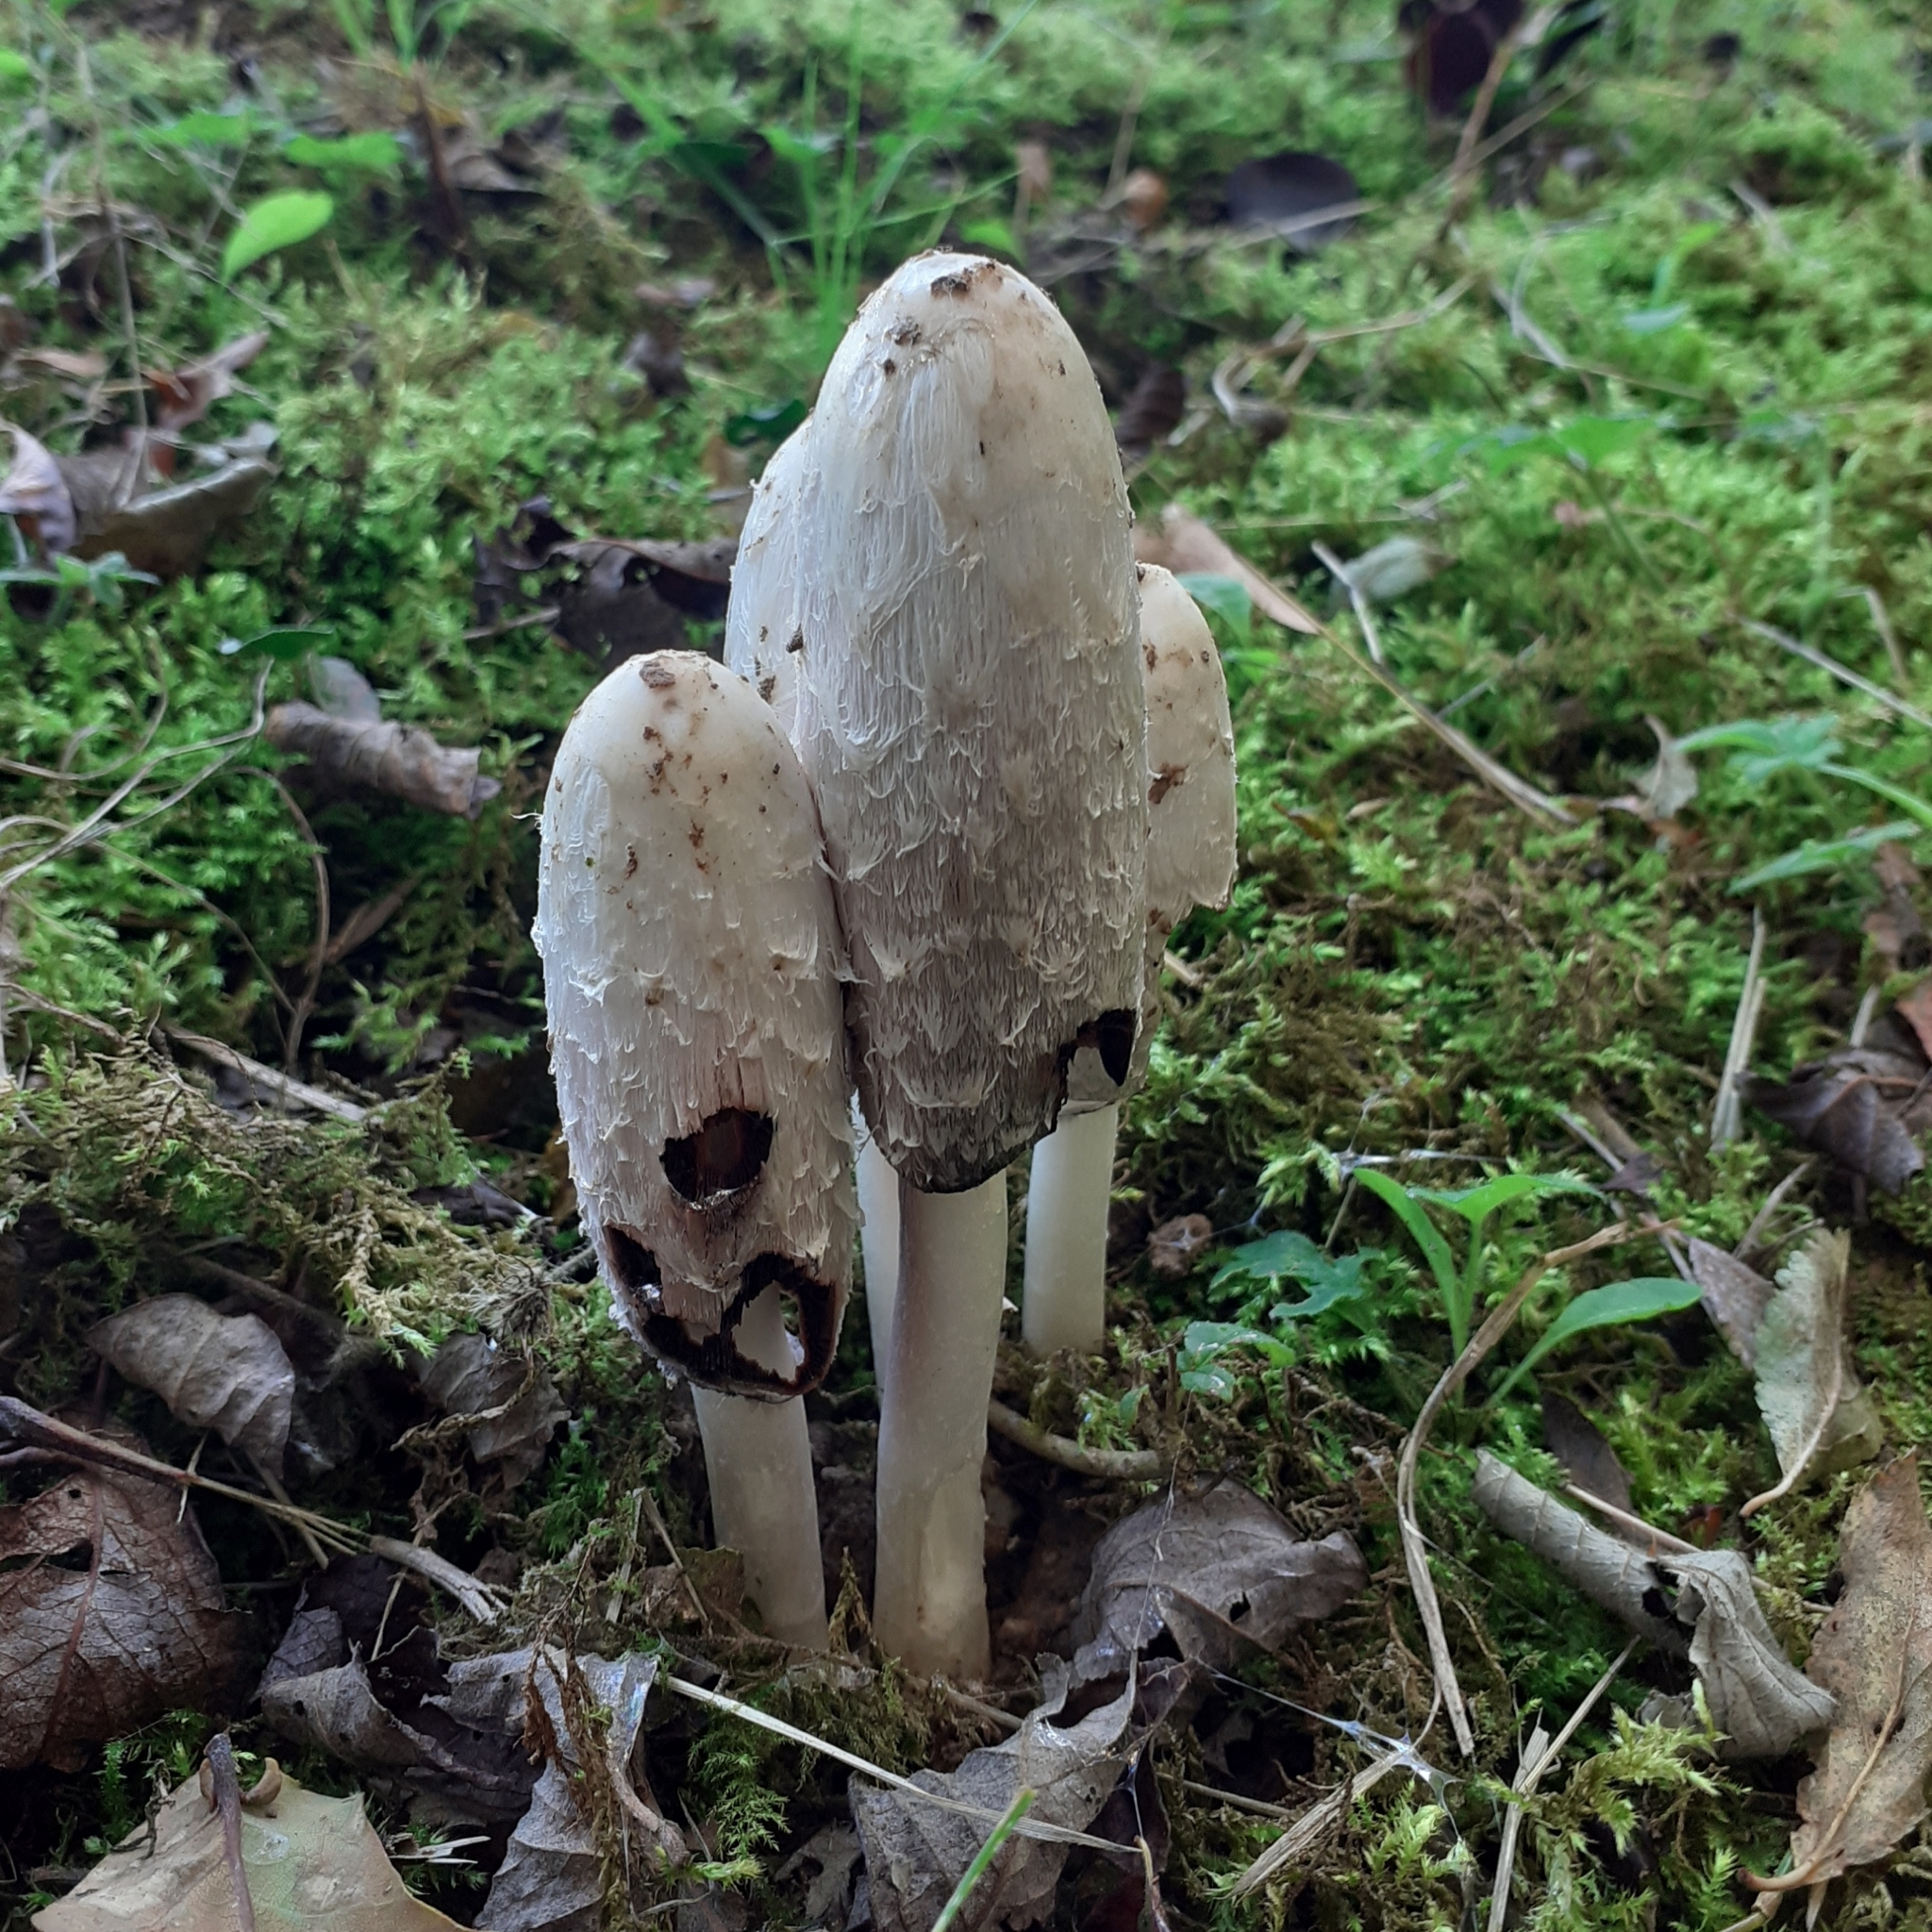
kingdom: Fungi
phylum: Basidiomycota
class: Agaricomycetes
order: Agaricales
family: Agaricaceae
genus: Coprinus
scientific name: Coprinus comatus
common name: Lawyer's wig
